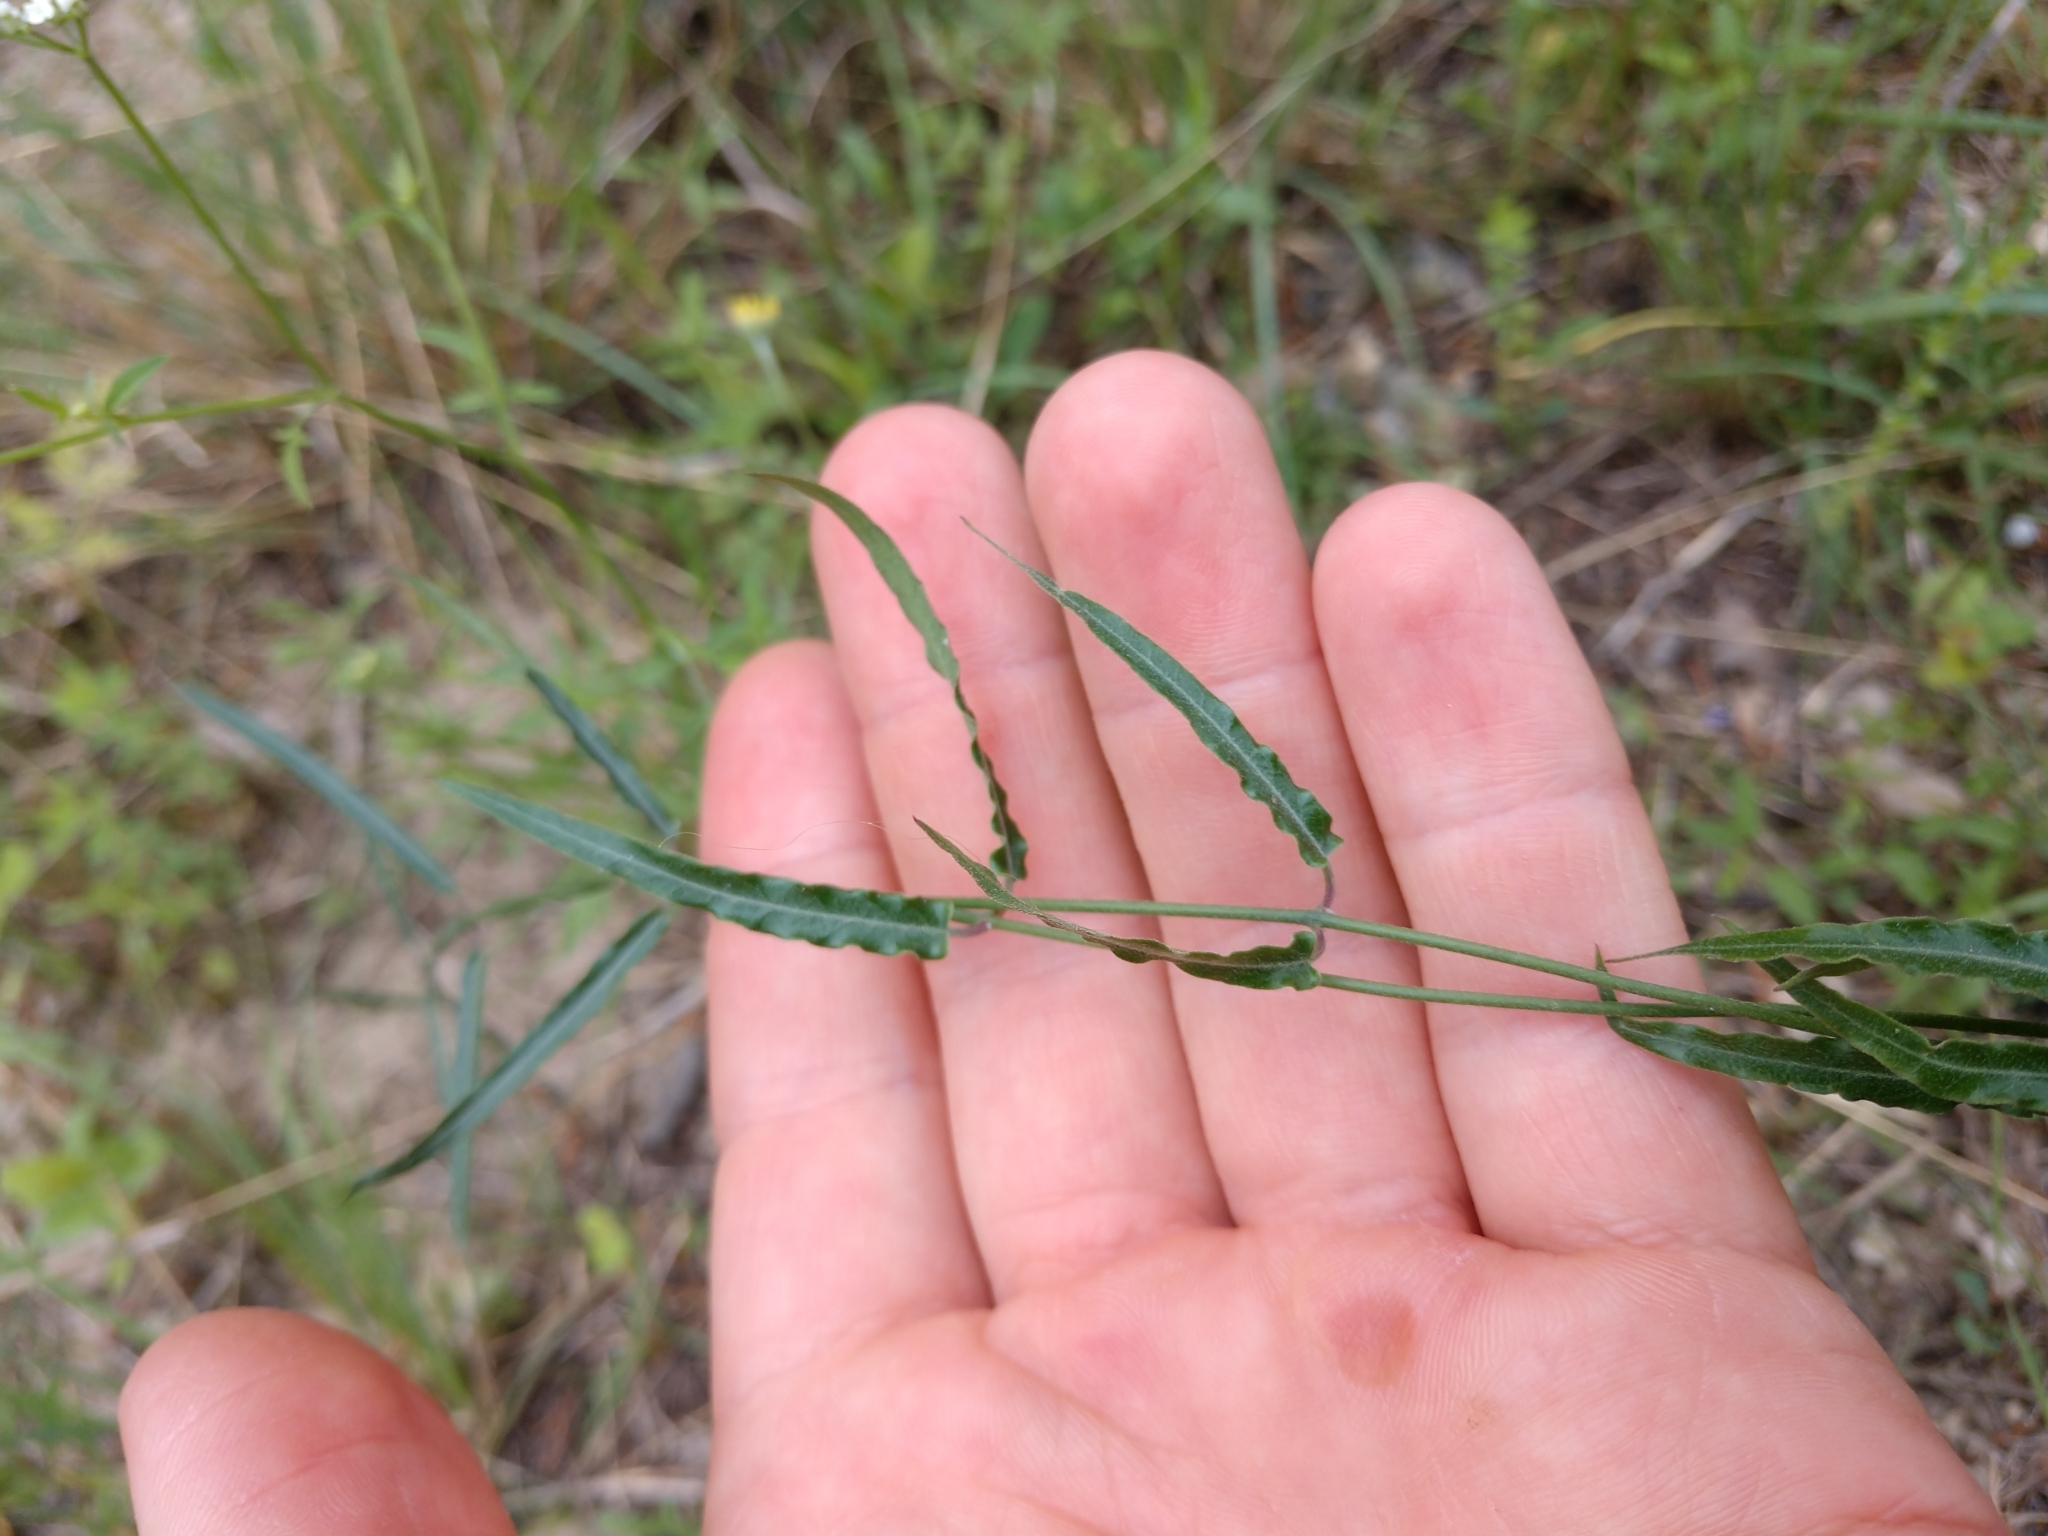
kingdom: Plantae
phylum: Tracheophyta
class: Magnoliopsida
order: Gentianales
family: Apocynaceae
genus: Funastrum
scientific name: Funastrum crispum
